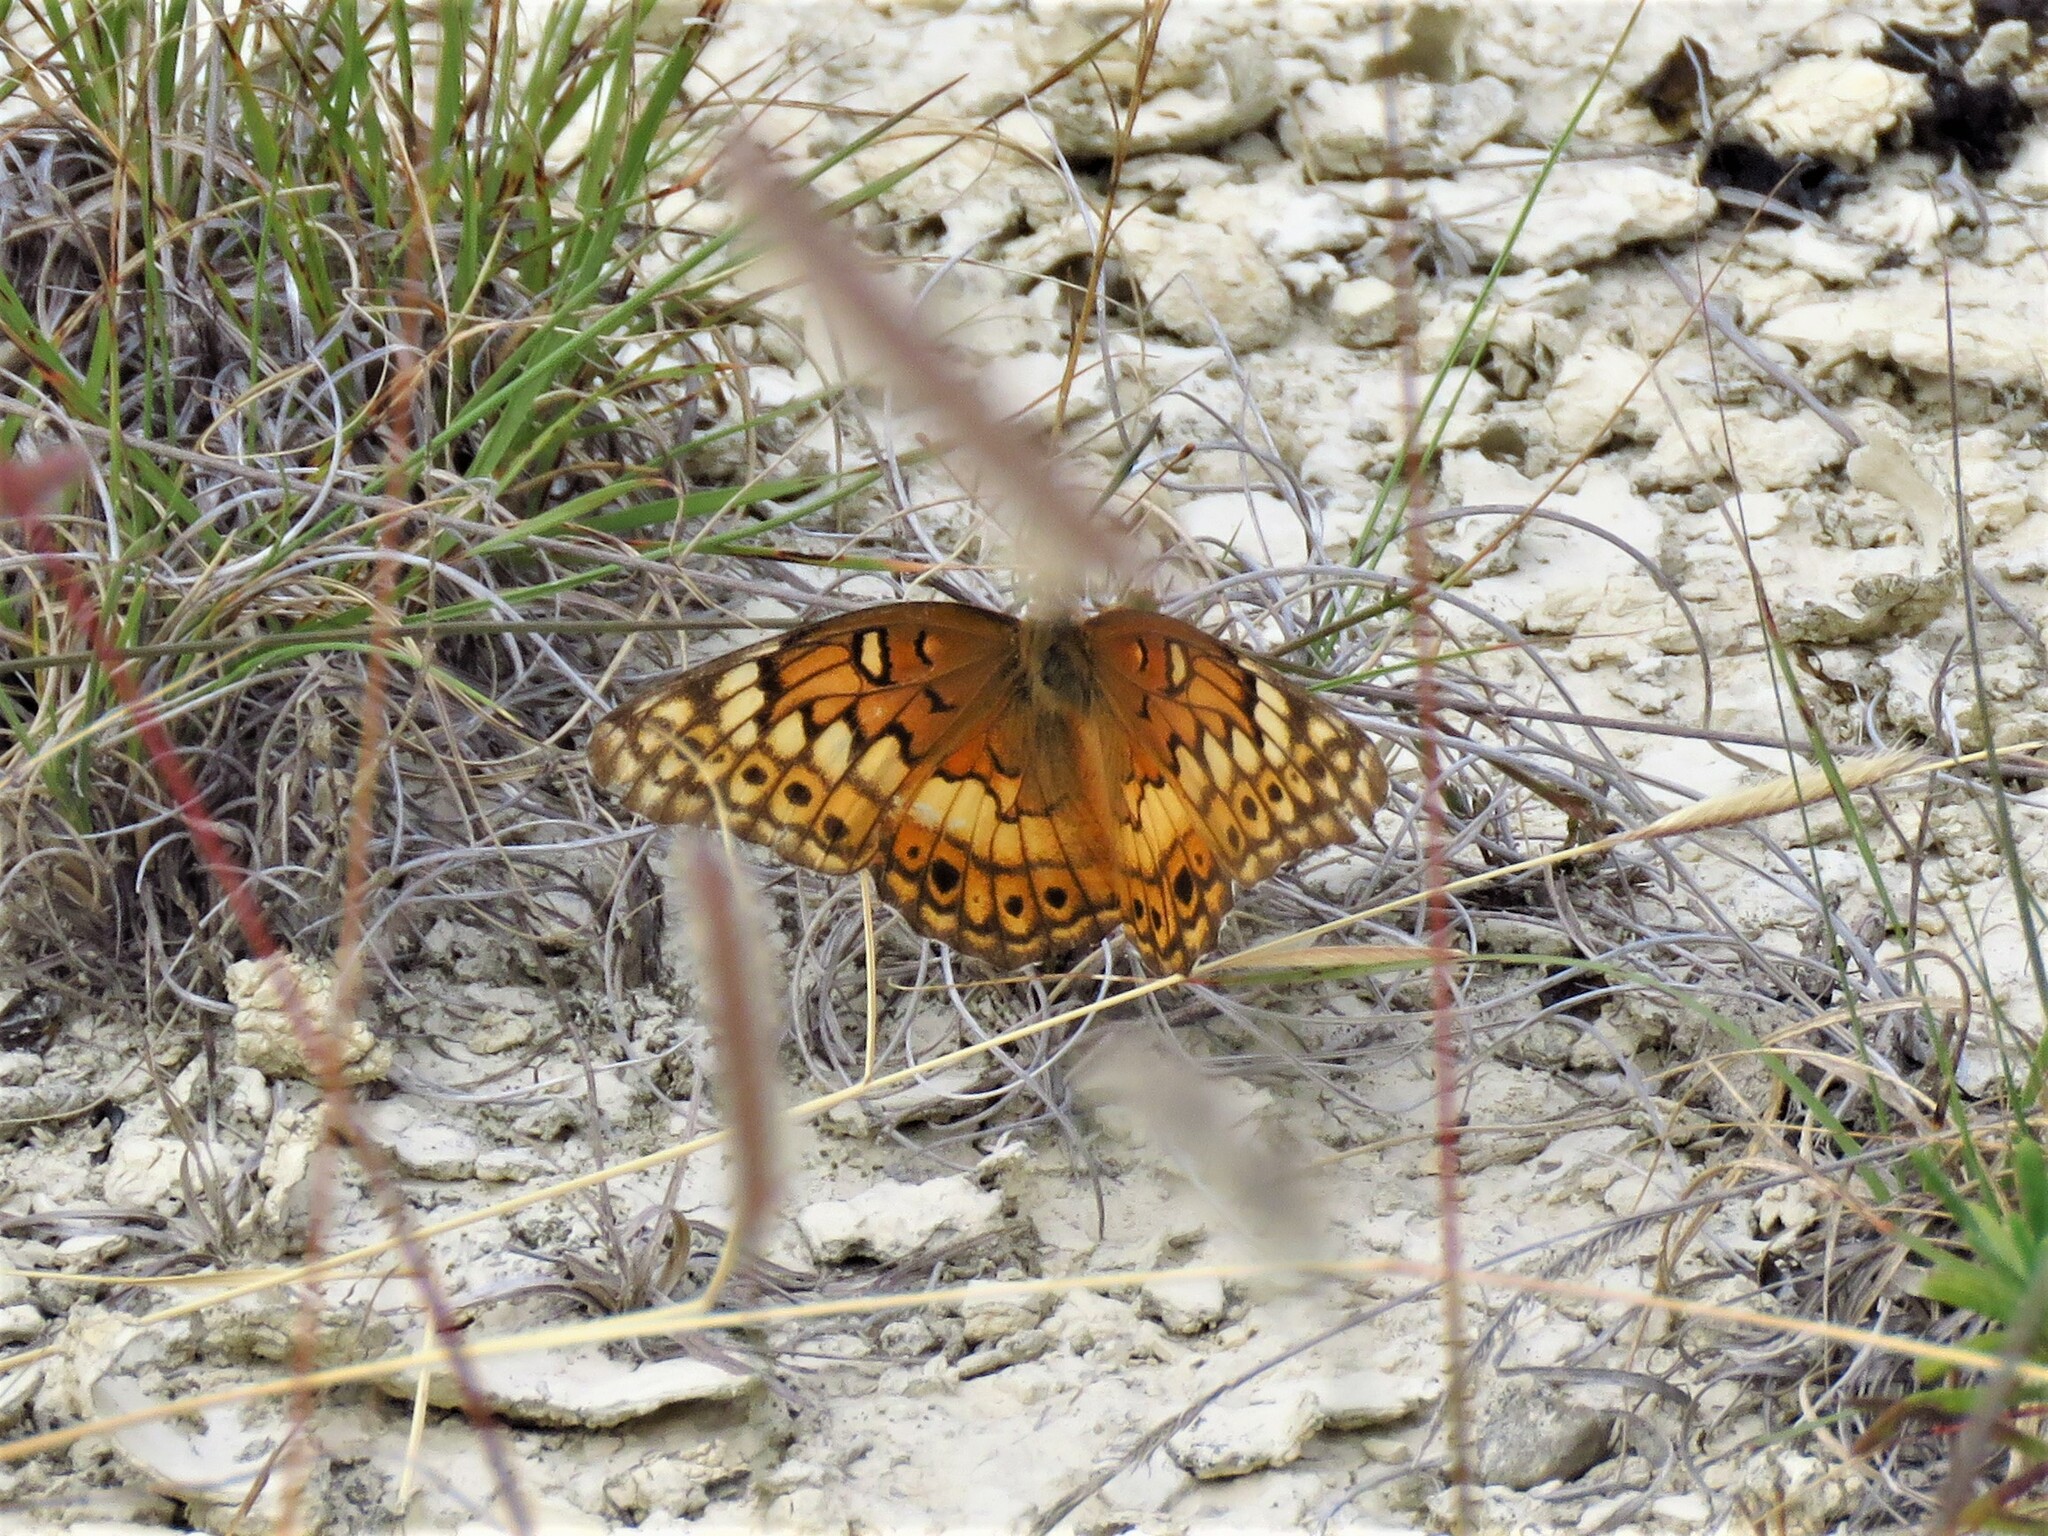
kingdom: Animalia
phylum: Arthropoda
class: Insecta
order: Lepidoptera
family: Nymphalidae
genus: Euptoieta
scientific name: Euptoieta claudia
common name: Variegated fritillary
